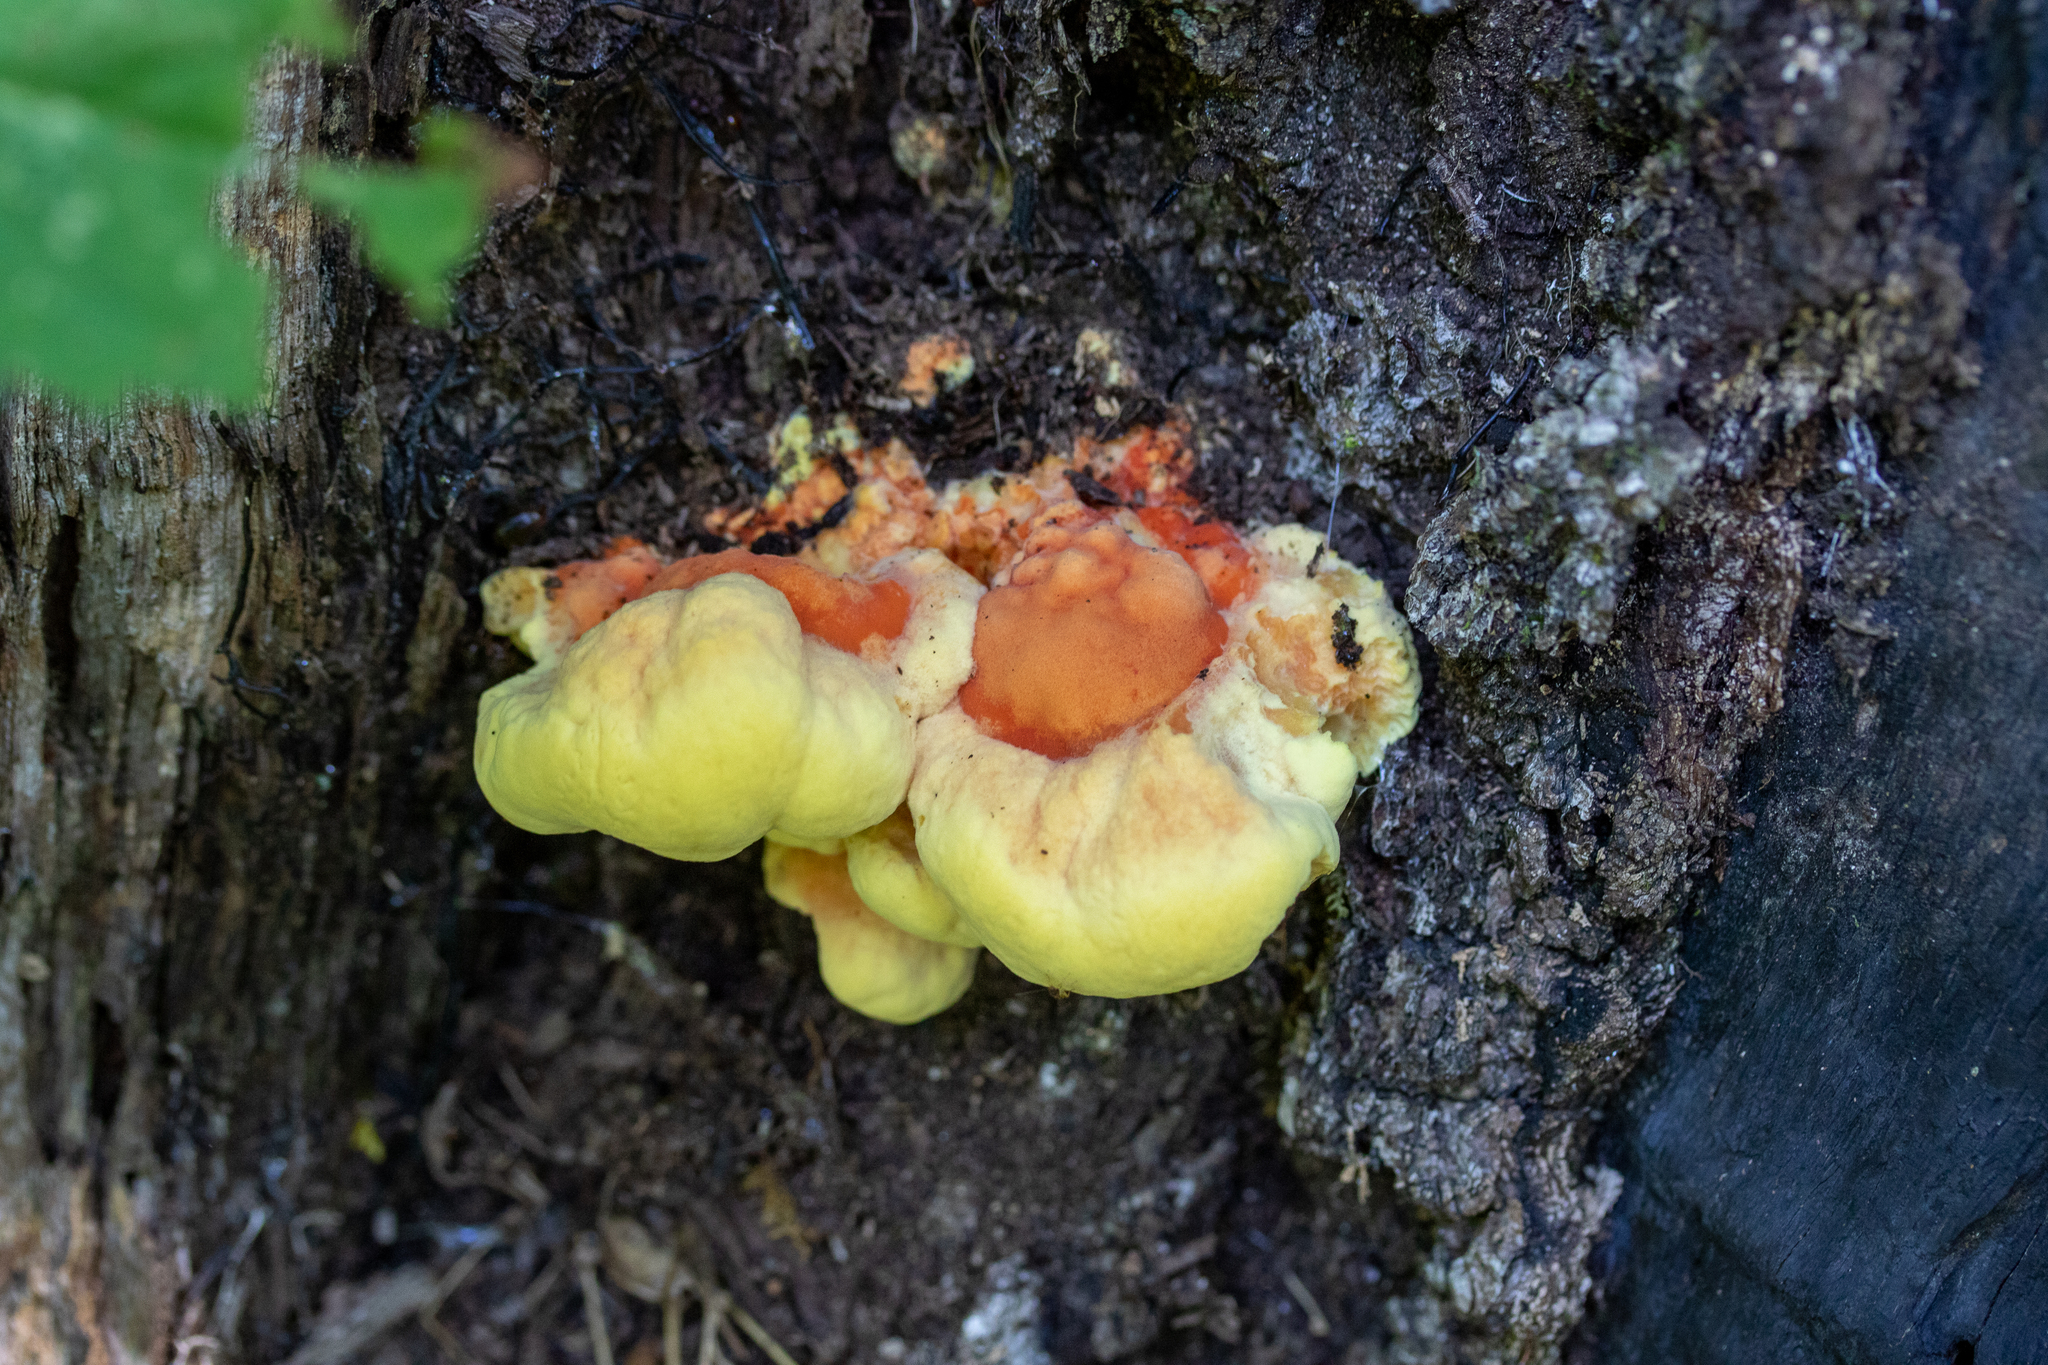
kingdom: Fungi
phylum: Basidiomycota
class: Agaricomycetes
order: Polyporales
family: Laetiporaceae
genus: Laetiporus
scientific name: Laetiporus sulphureus
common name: Chicken of the woods
